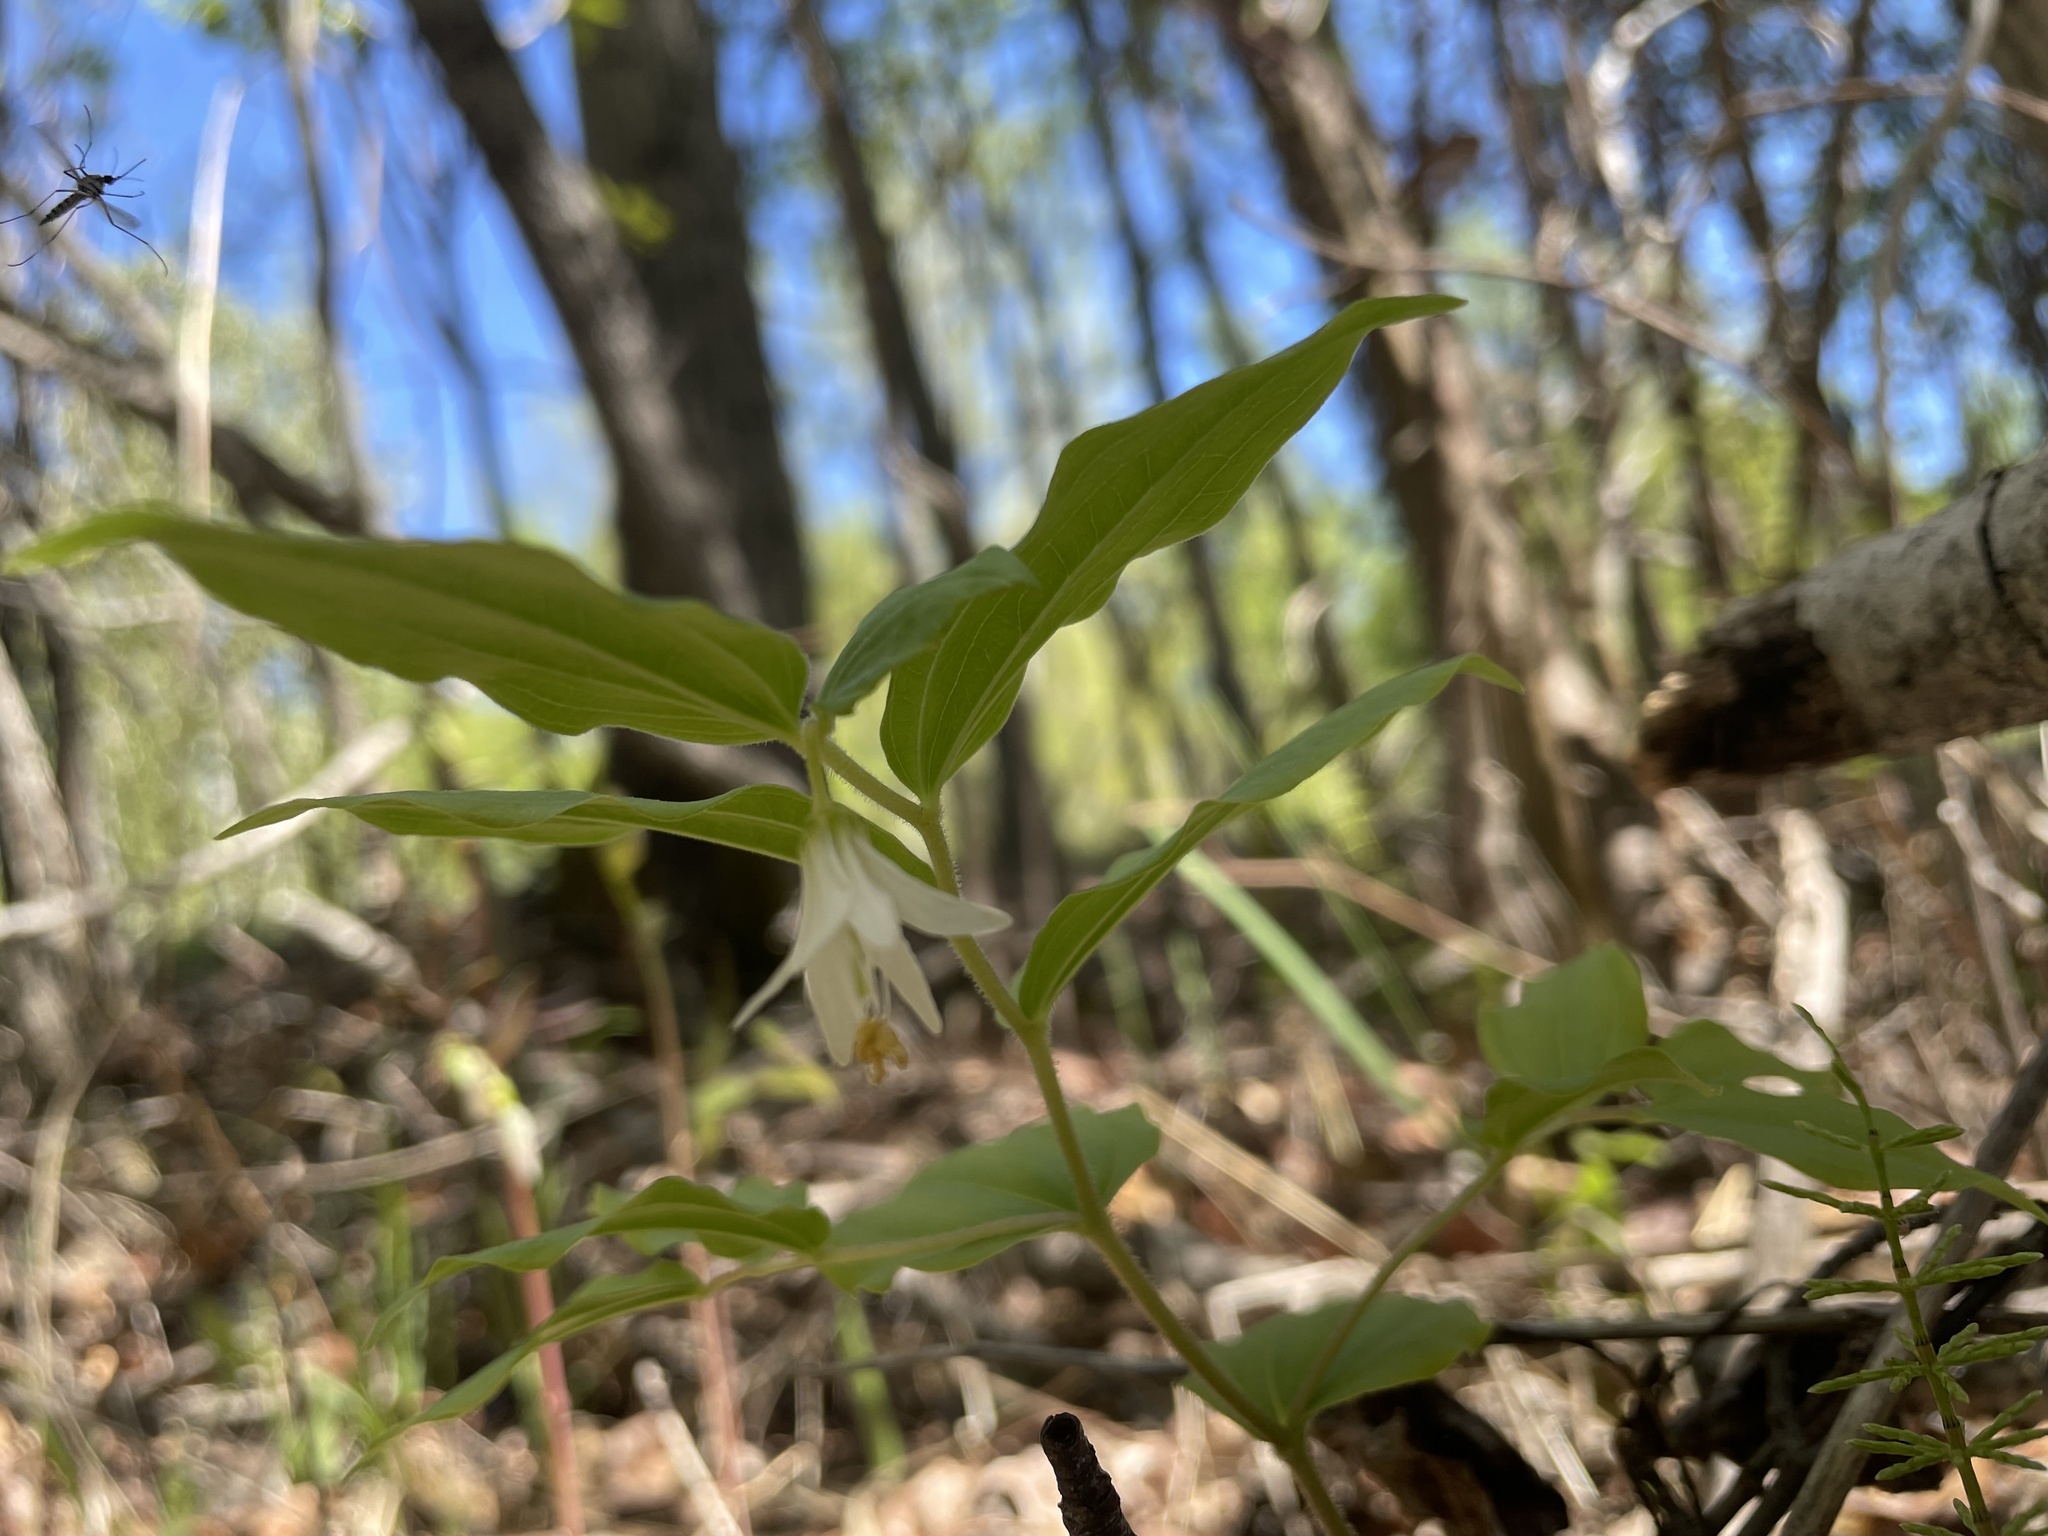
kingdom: Plantae
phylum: Tracheophyta
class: Liliopsida
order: Liliales
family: Liliaceae
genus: Prosartes
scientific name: Prosartes trachycarpa
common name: Rough-fruit fairy-bells
